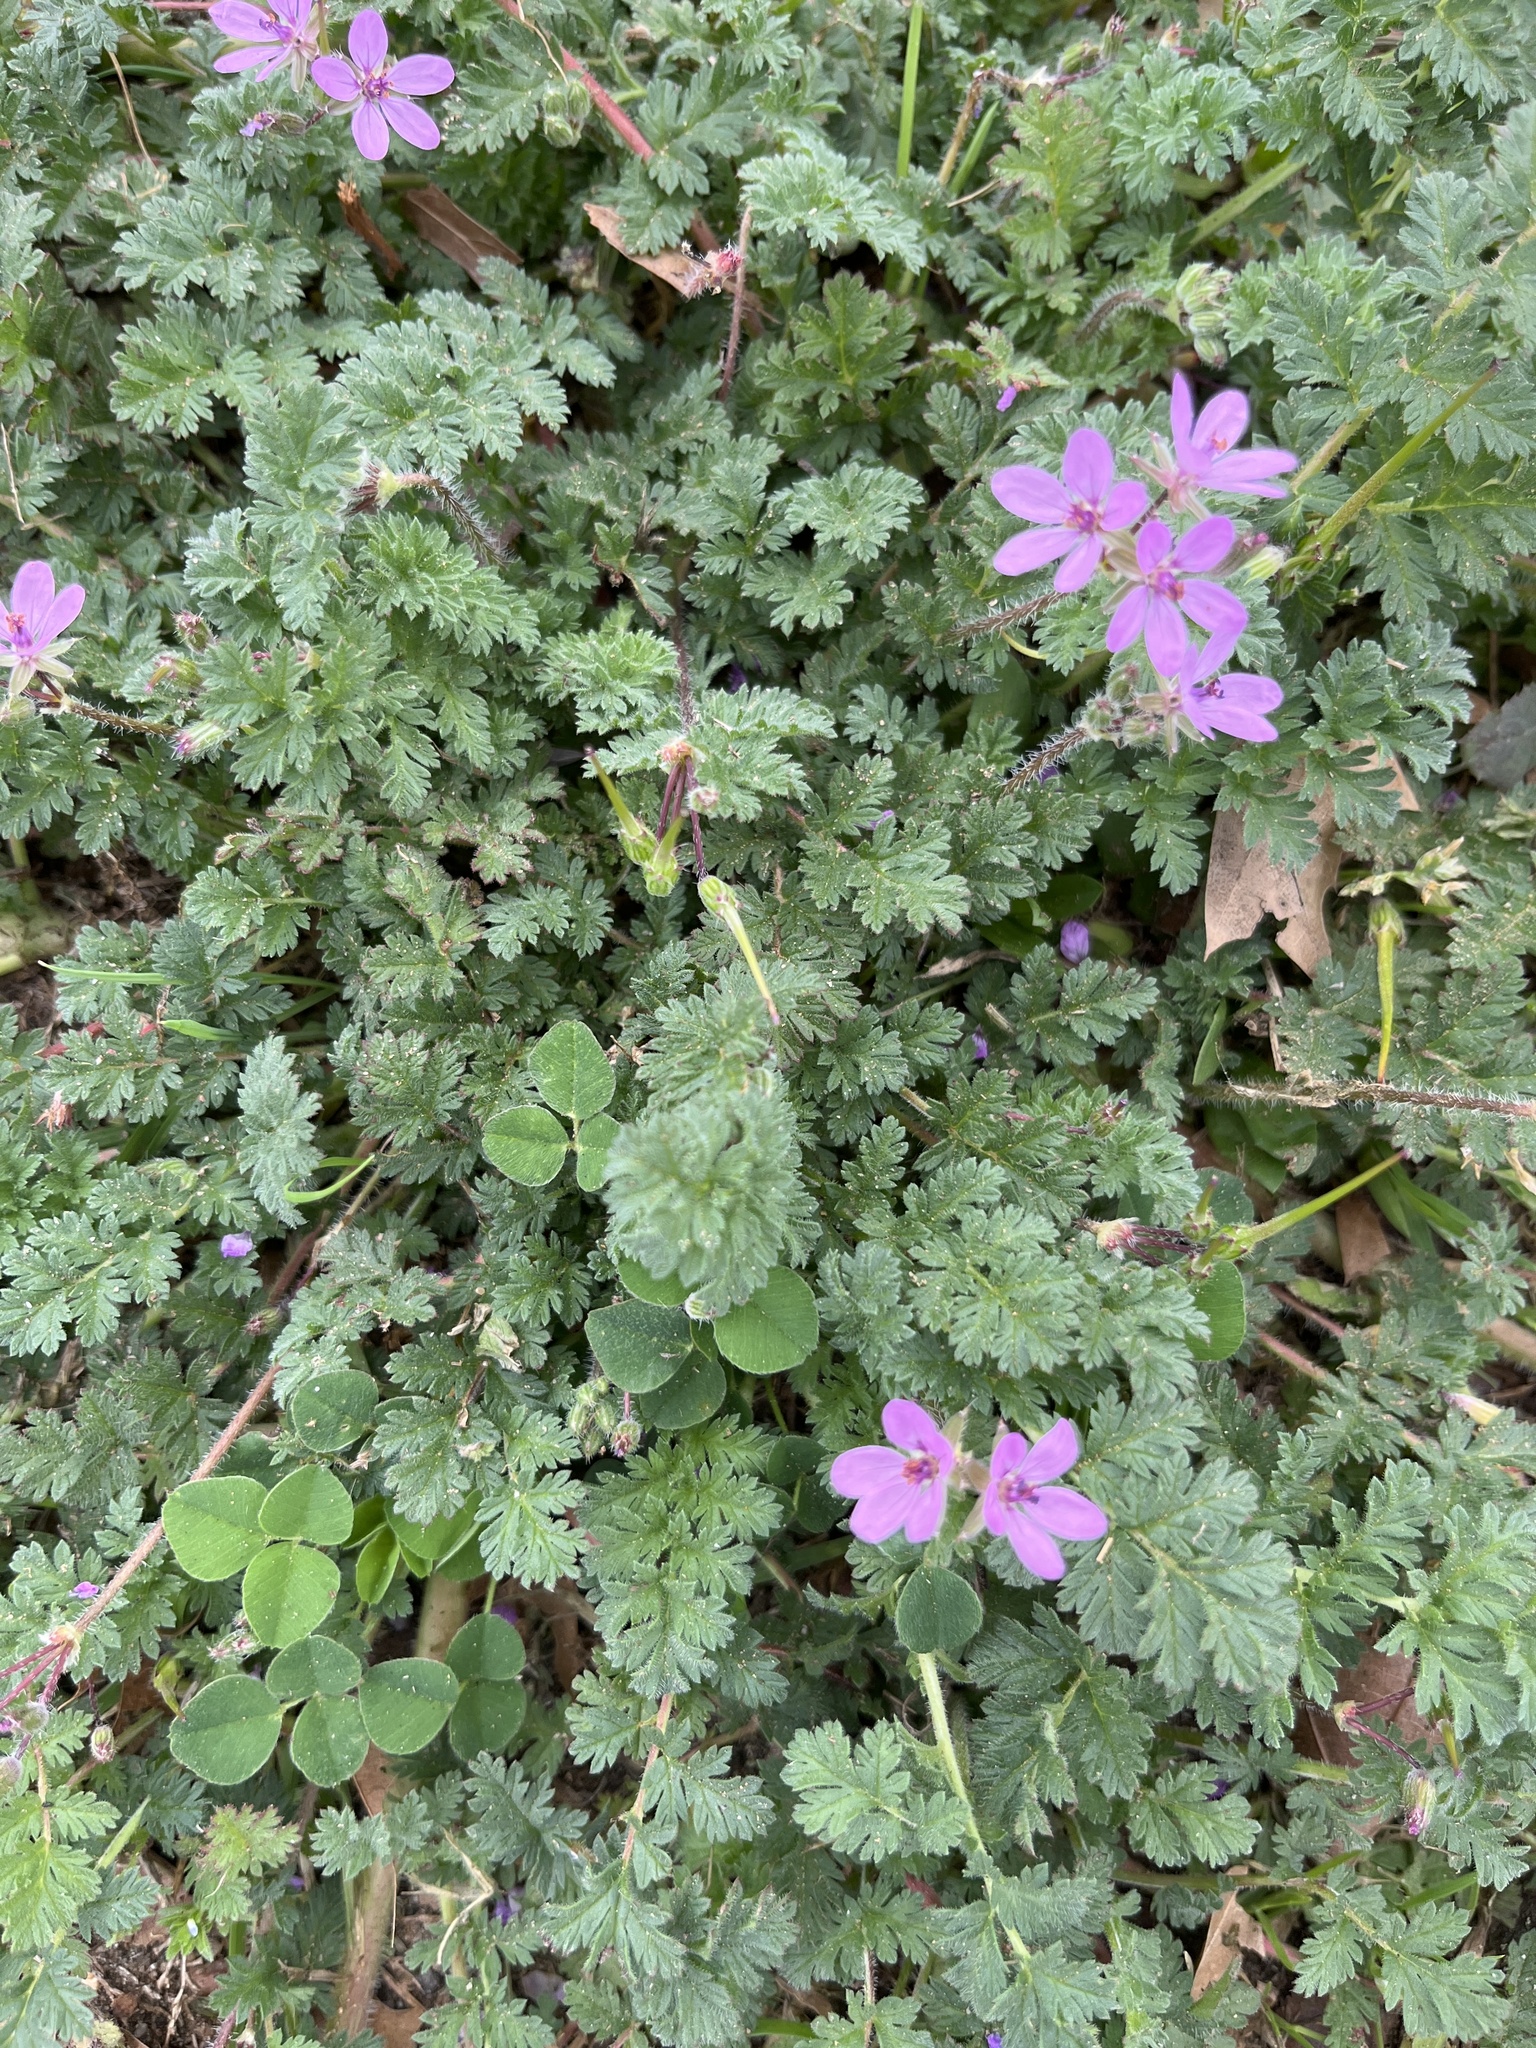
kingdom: Plantae
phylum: Tracheophyta
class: Magnoliopsida
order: Geraniales
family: Geraniaceae
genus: Erodium
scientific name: Erodium cicutarium
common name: Common stork's-bill
